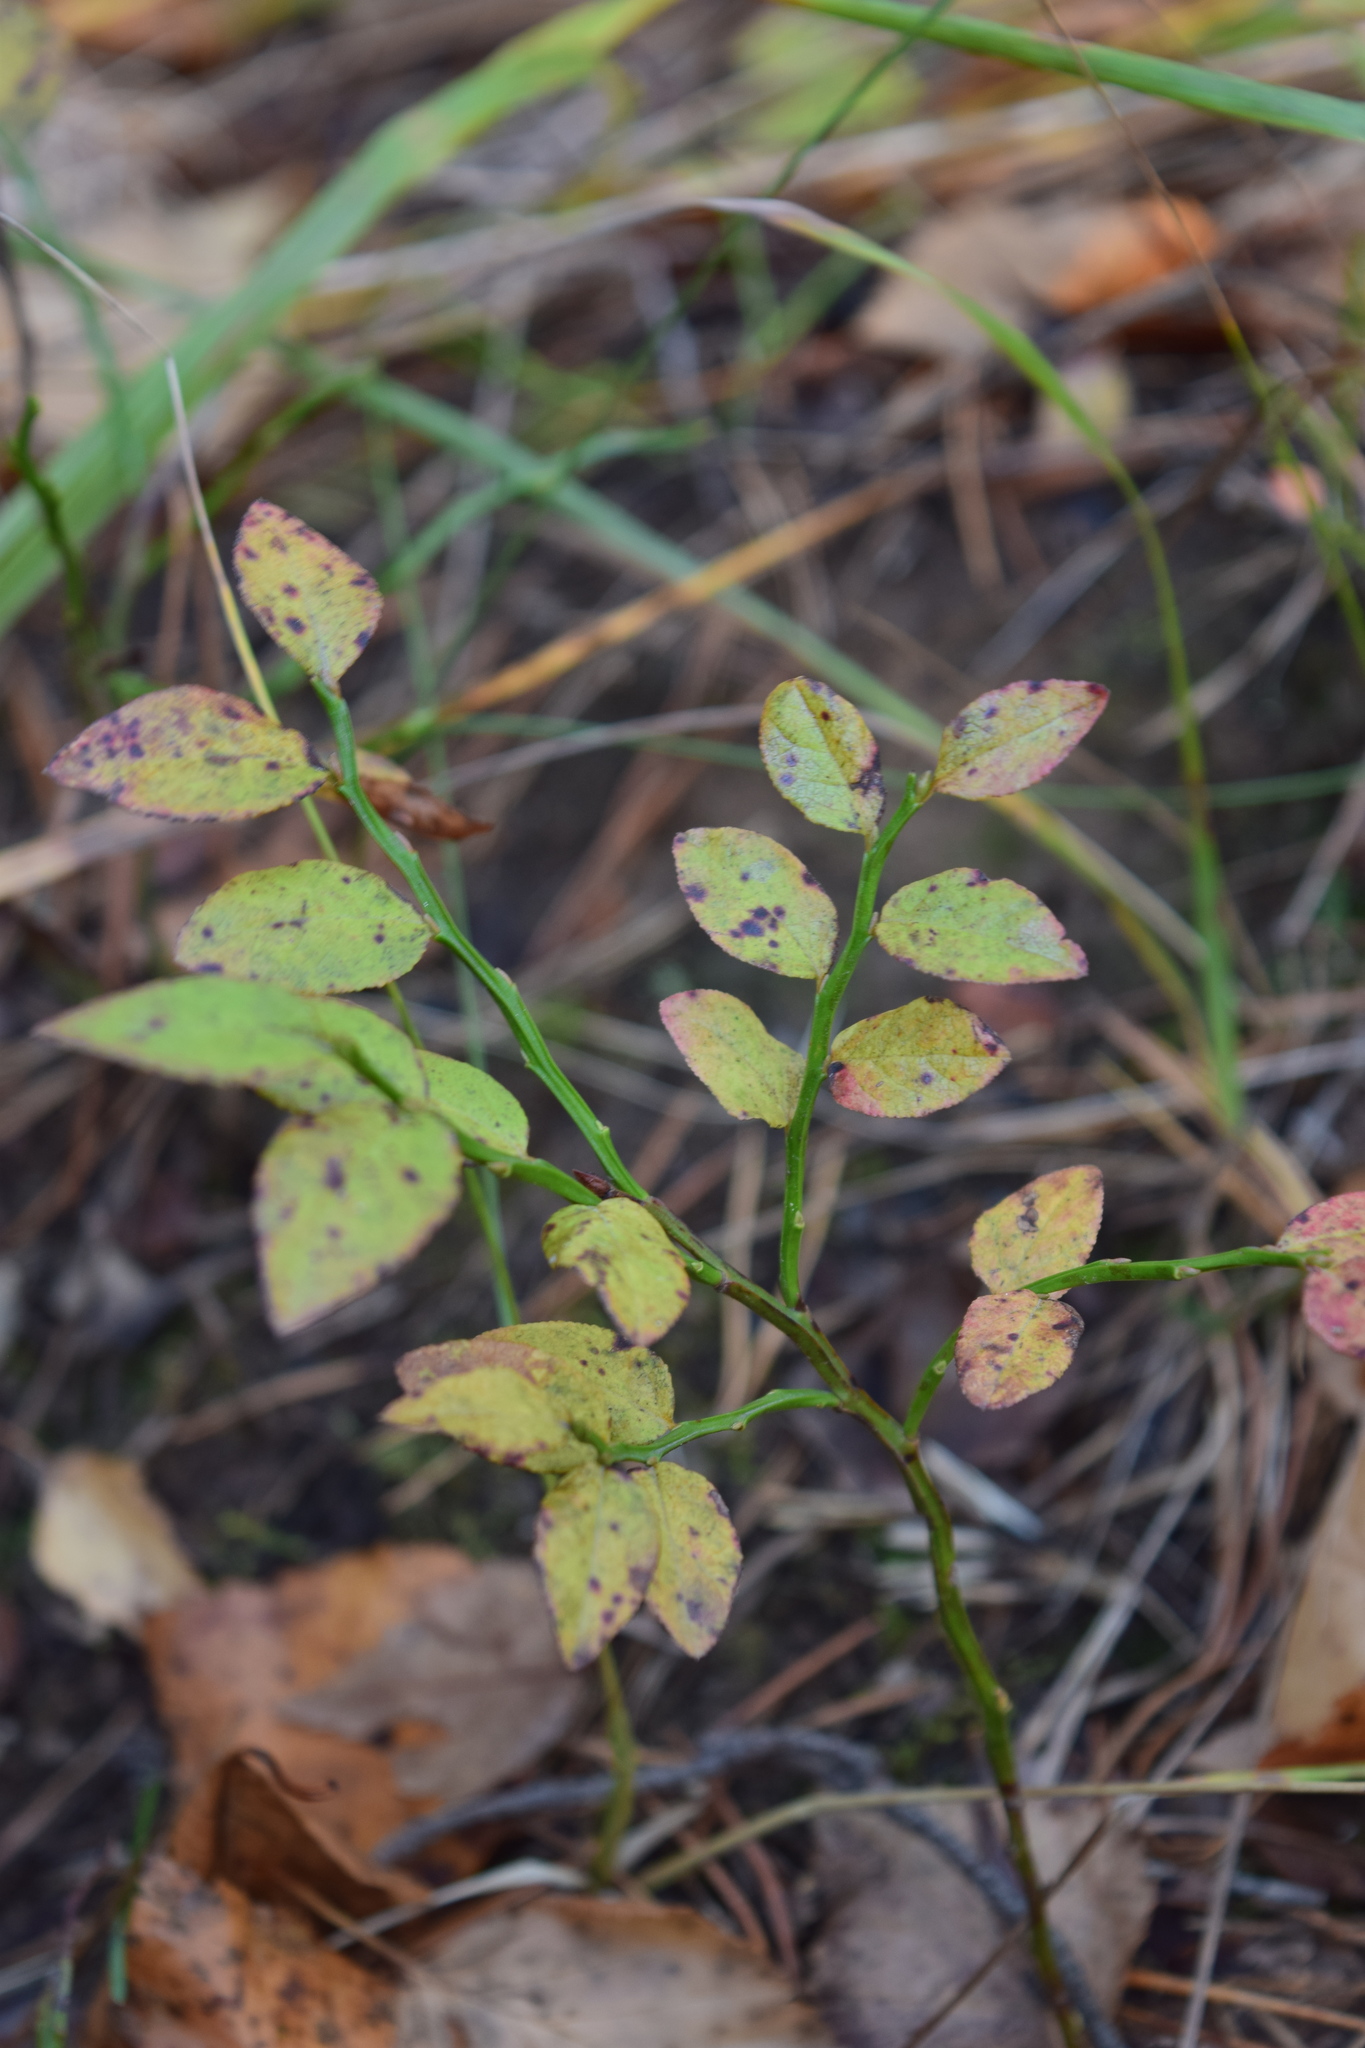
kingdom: Plantae
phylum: Tracheophyta
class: Magnoliopsida
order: Ericales
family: Ericaceae
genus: Vaccinium
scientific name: Vaccinium myrtillus
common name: Bilberry
